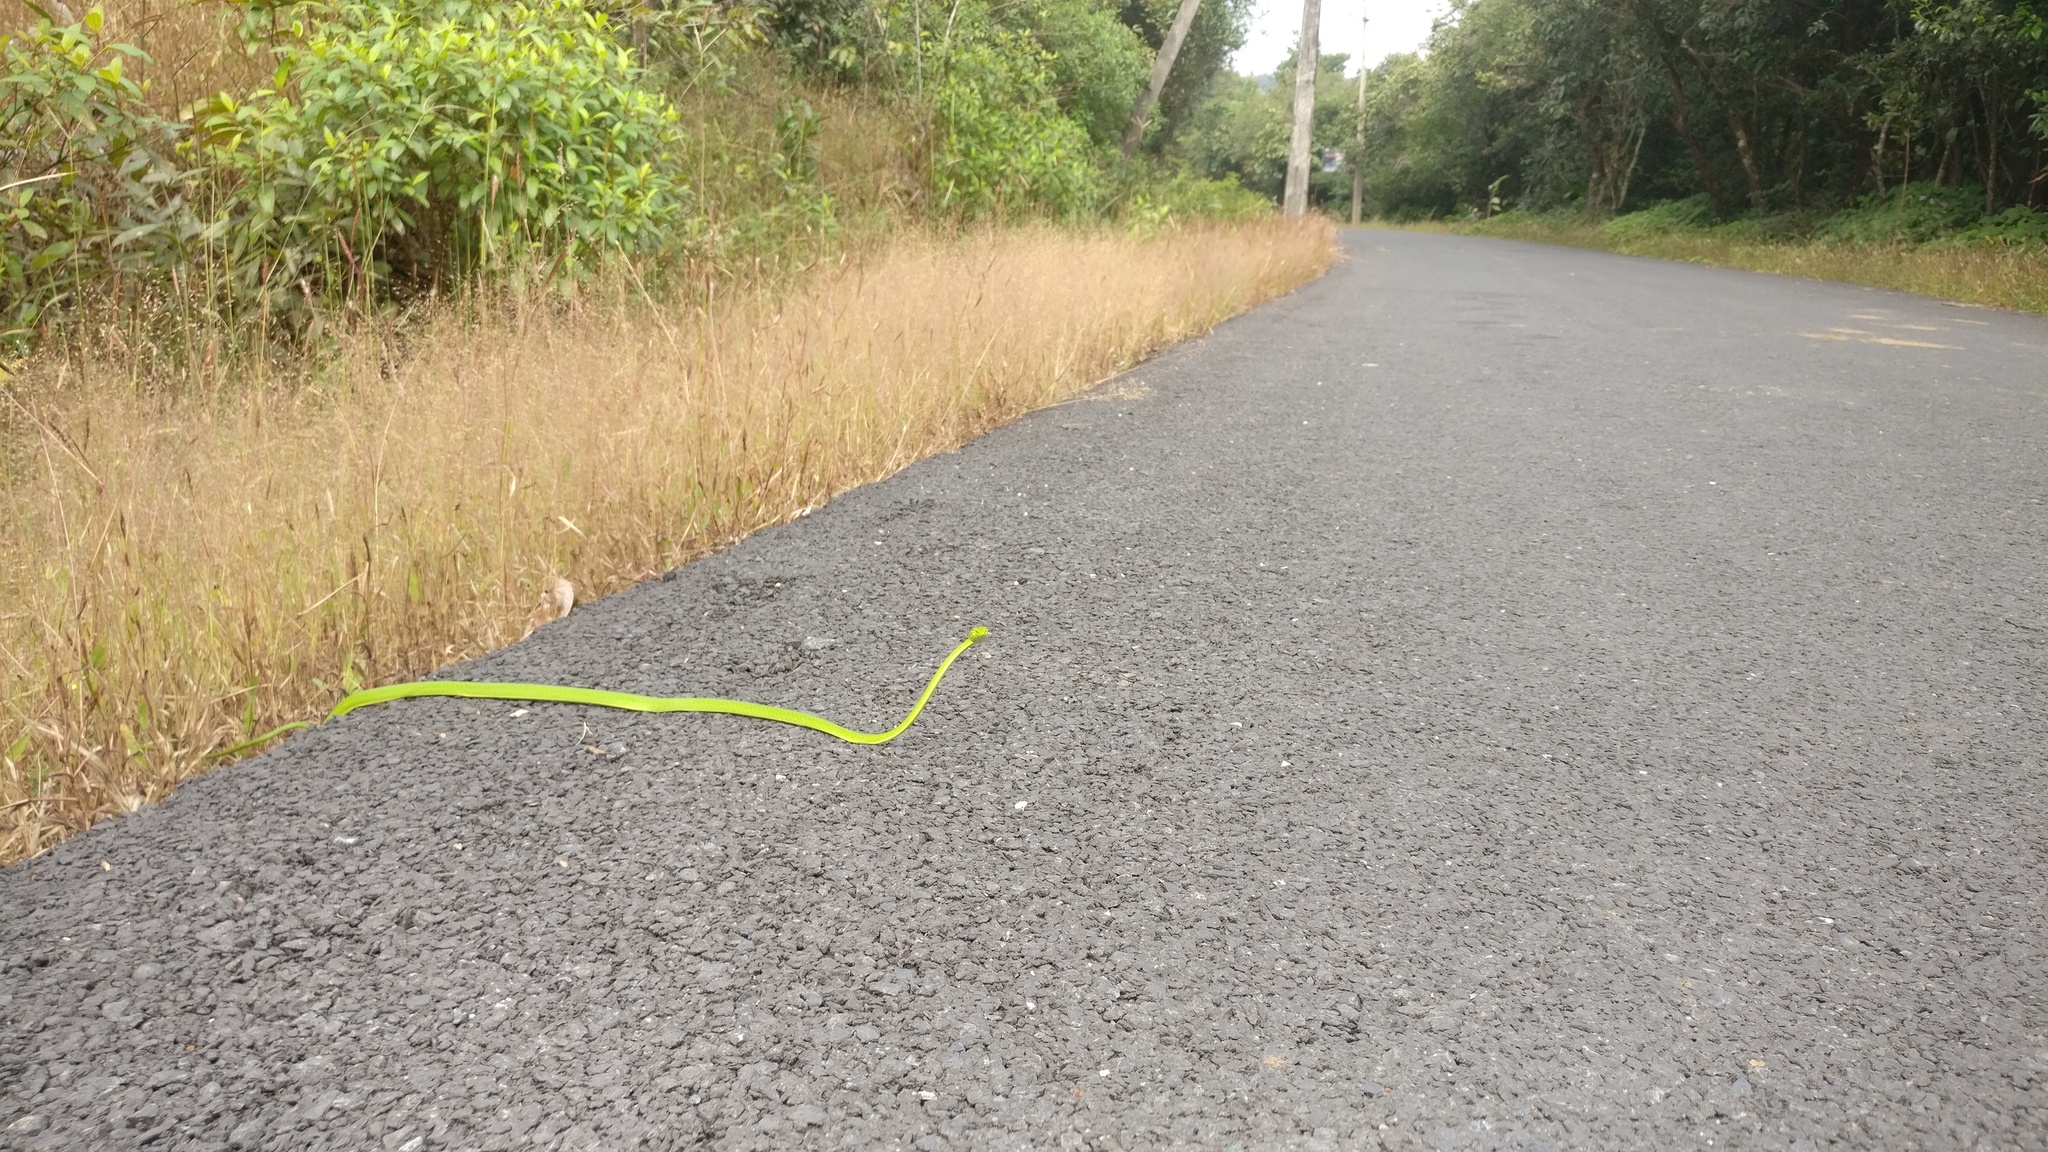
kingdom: Animalia
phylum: Chordata
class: Squamata
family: Colubridae
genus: Ahaetulla
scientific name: Ahaetulla borealis
